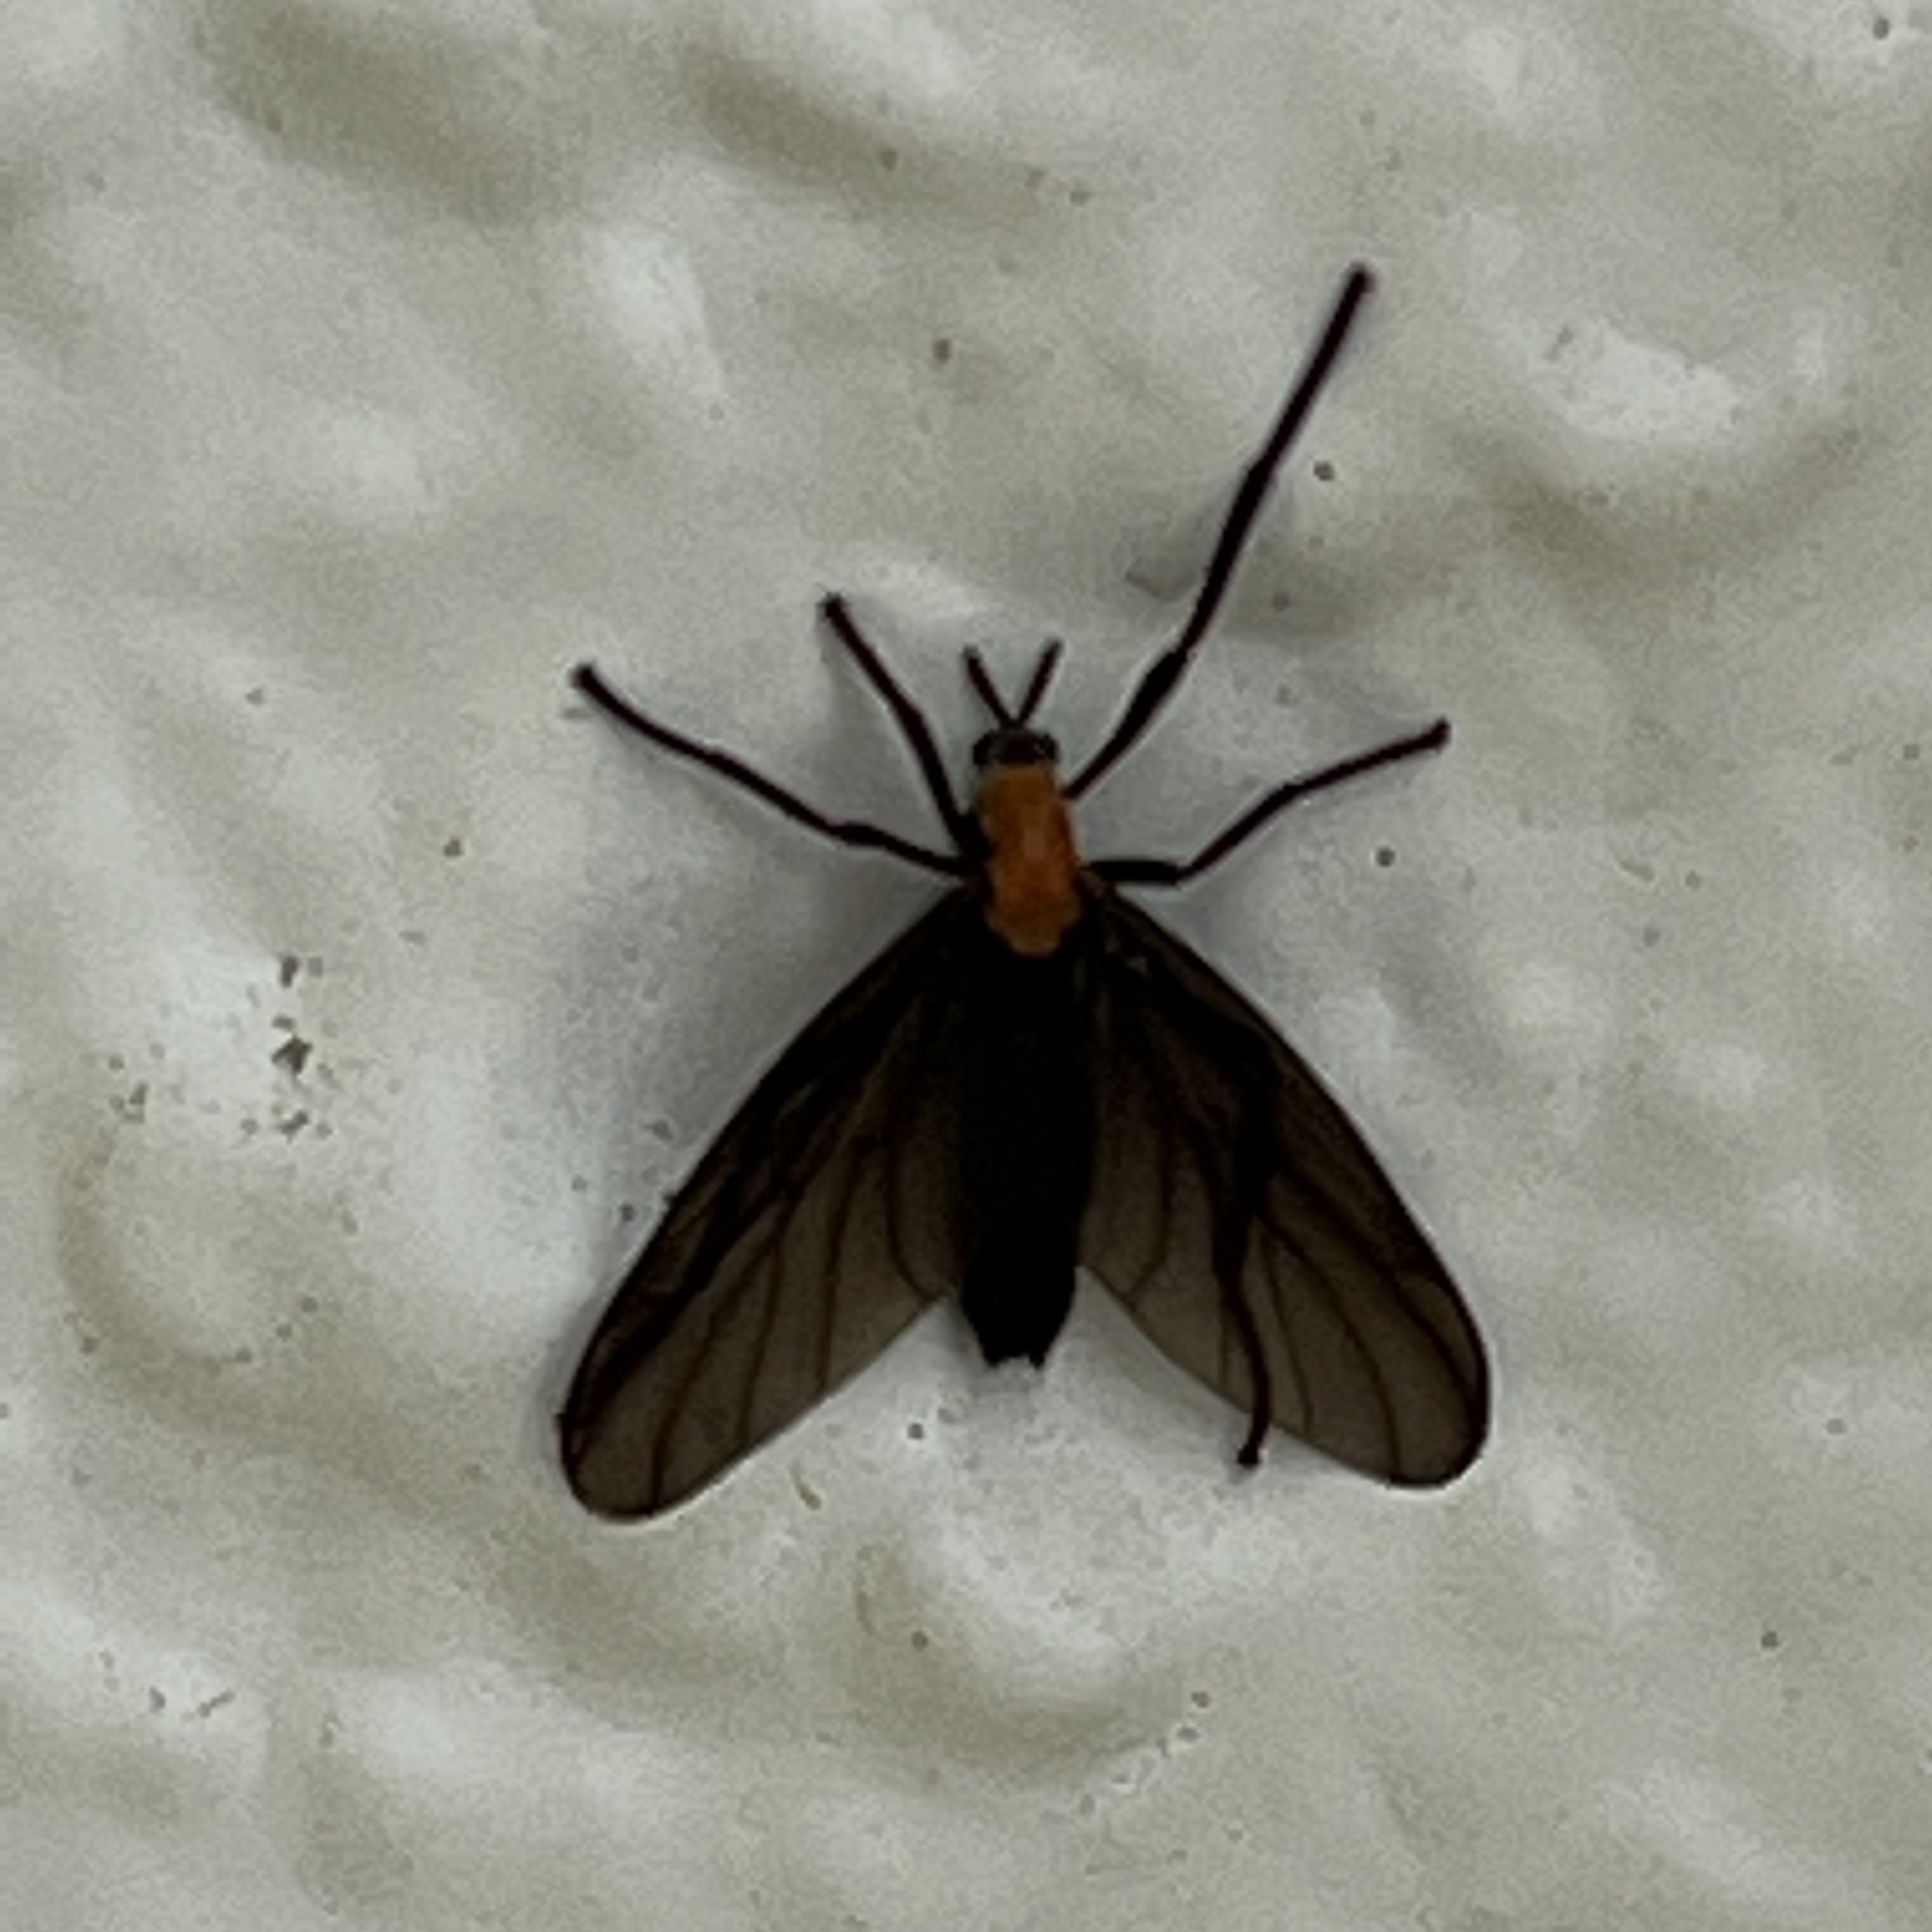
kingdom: Animalia
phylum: Arthropoda
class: Insecta
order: Diptera
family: Bibionidae
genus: Plecia
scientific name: Plecia nearctica
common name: March fly
